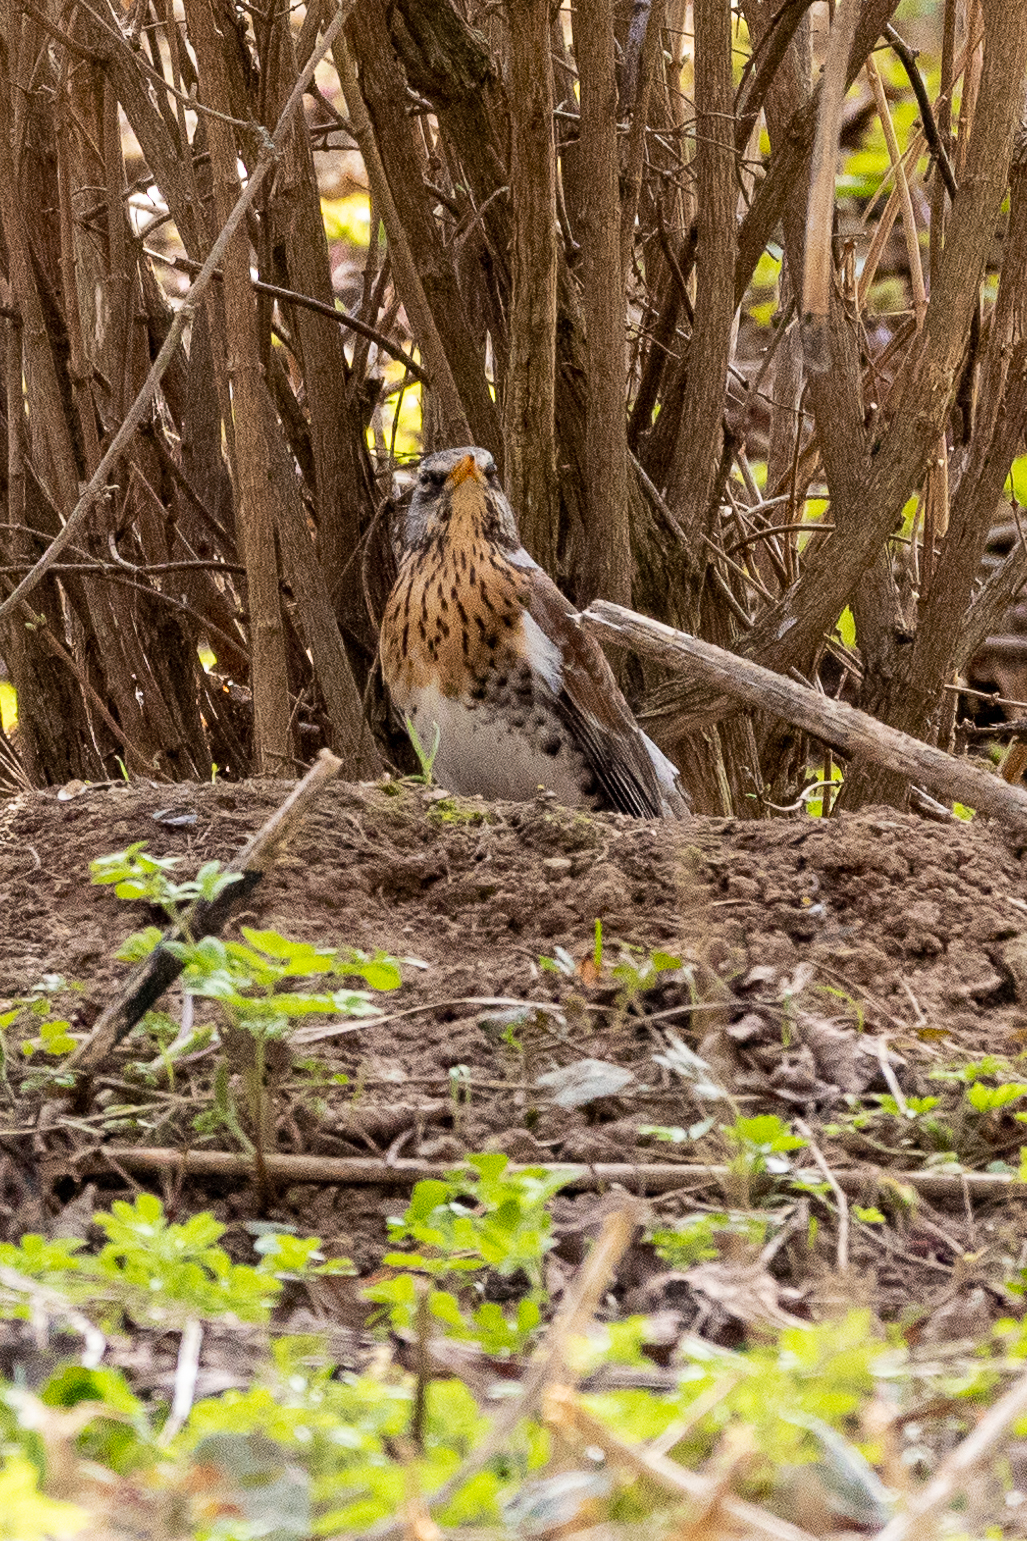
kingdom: Animalia
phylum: Chordata
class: Aves
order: Passeriformes
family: Turdidae
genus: Turdus
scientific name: Turdus pilaris
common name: Fieldfare
